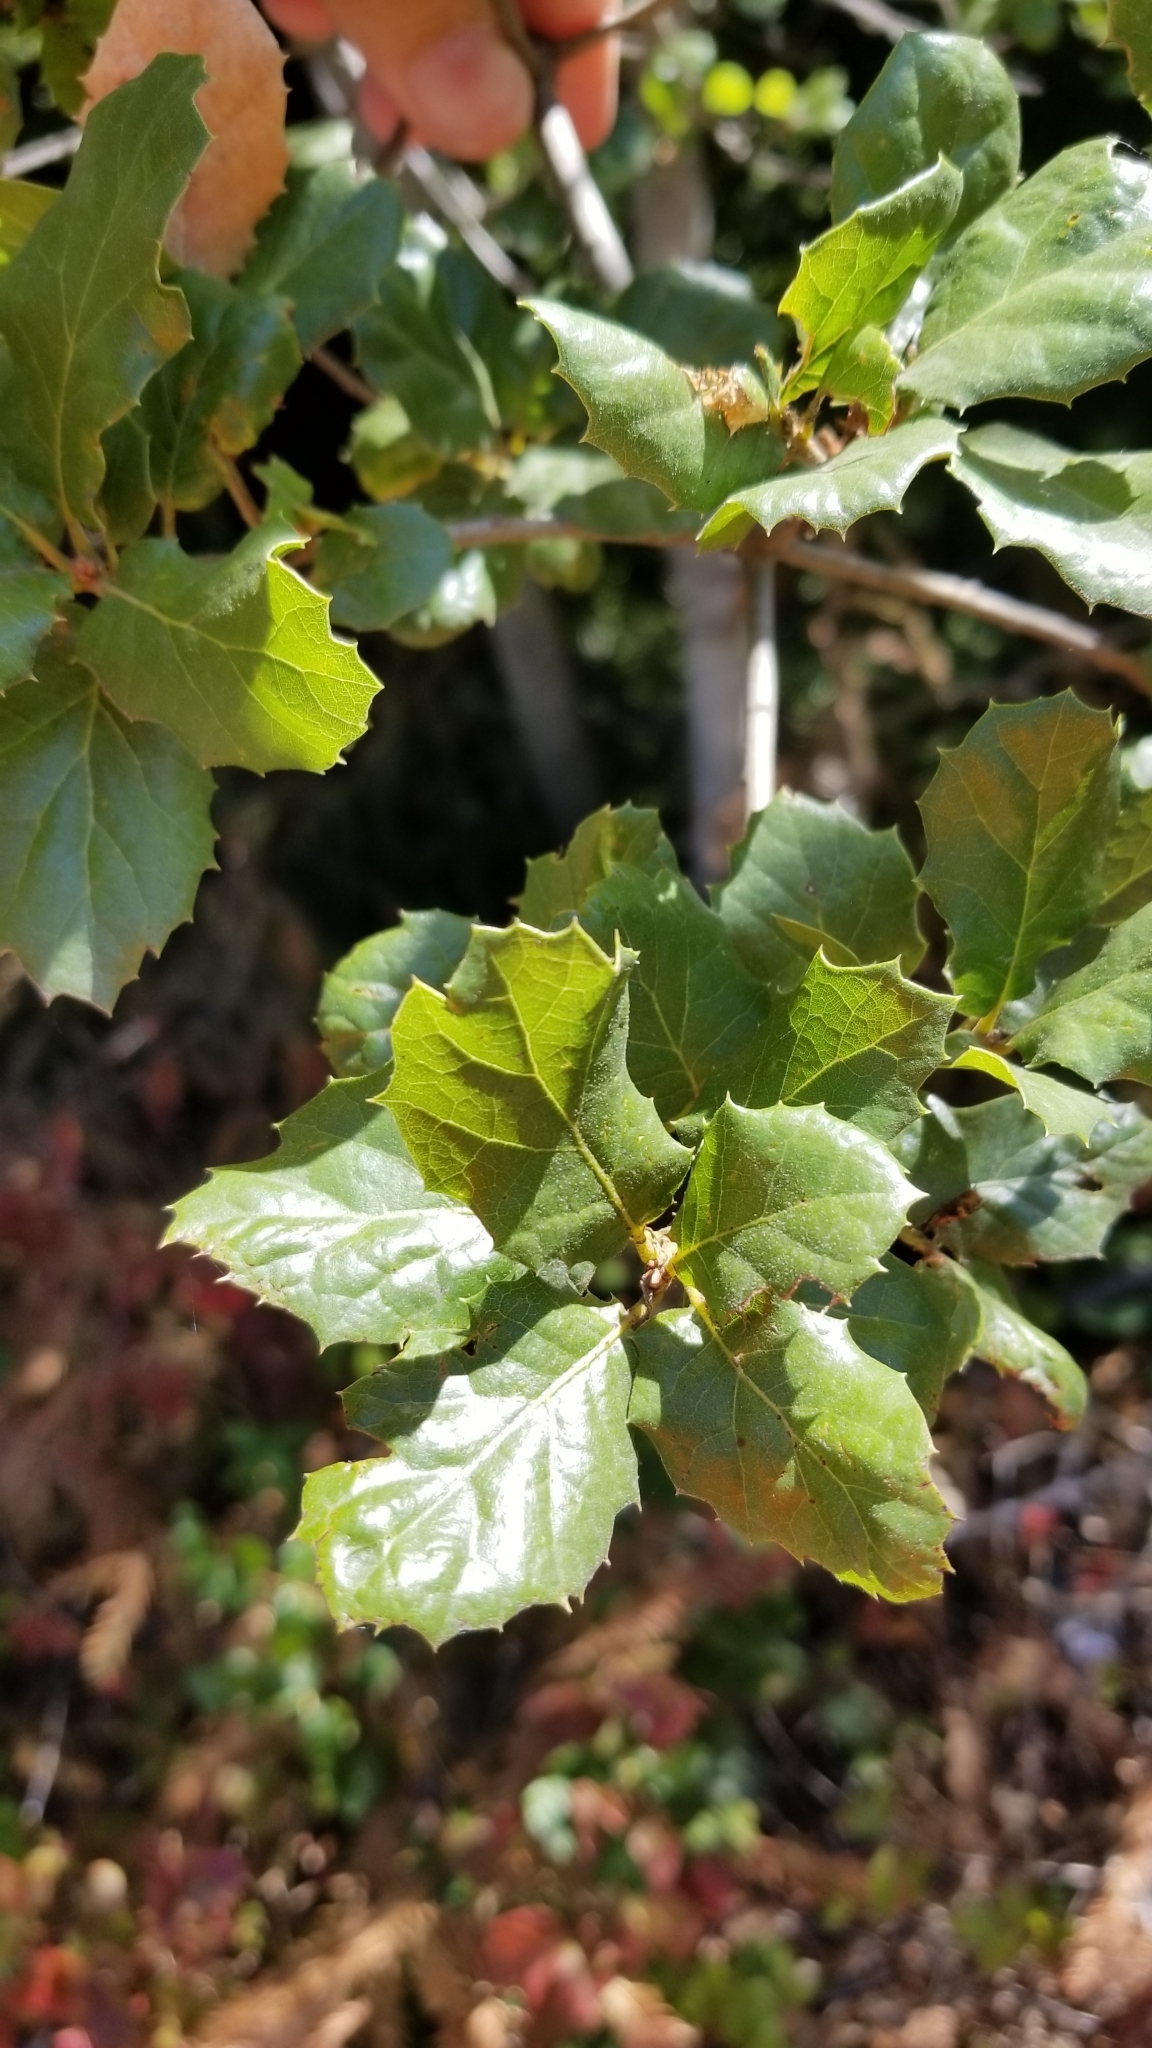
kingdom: Plantae
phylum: Tracheophyta
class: Magnoliopsida
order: Fagales
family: Fagaceae
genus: Quercus
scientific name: Quercus agrifolia
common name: California live oak
